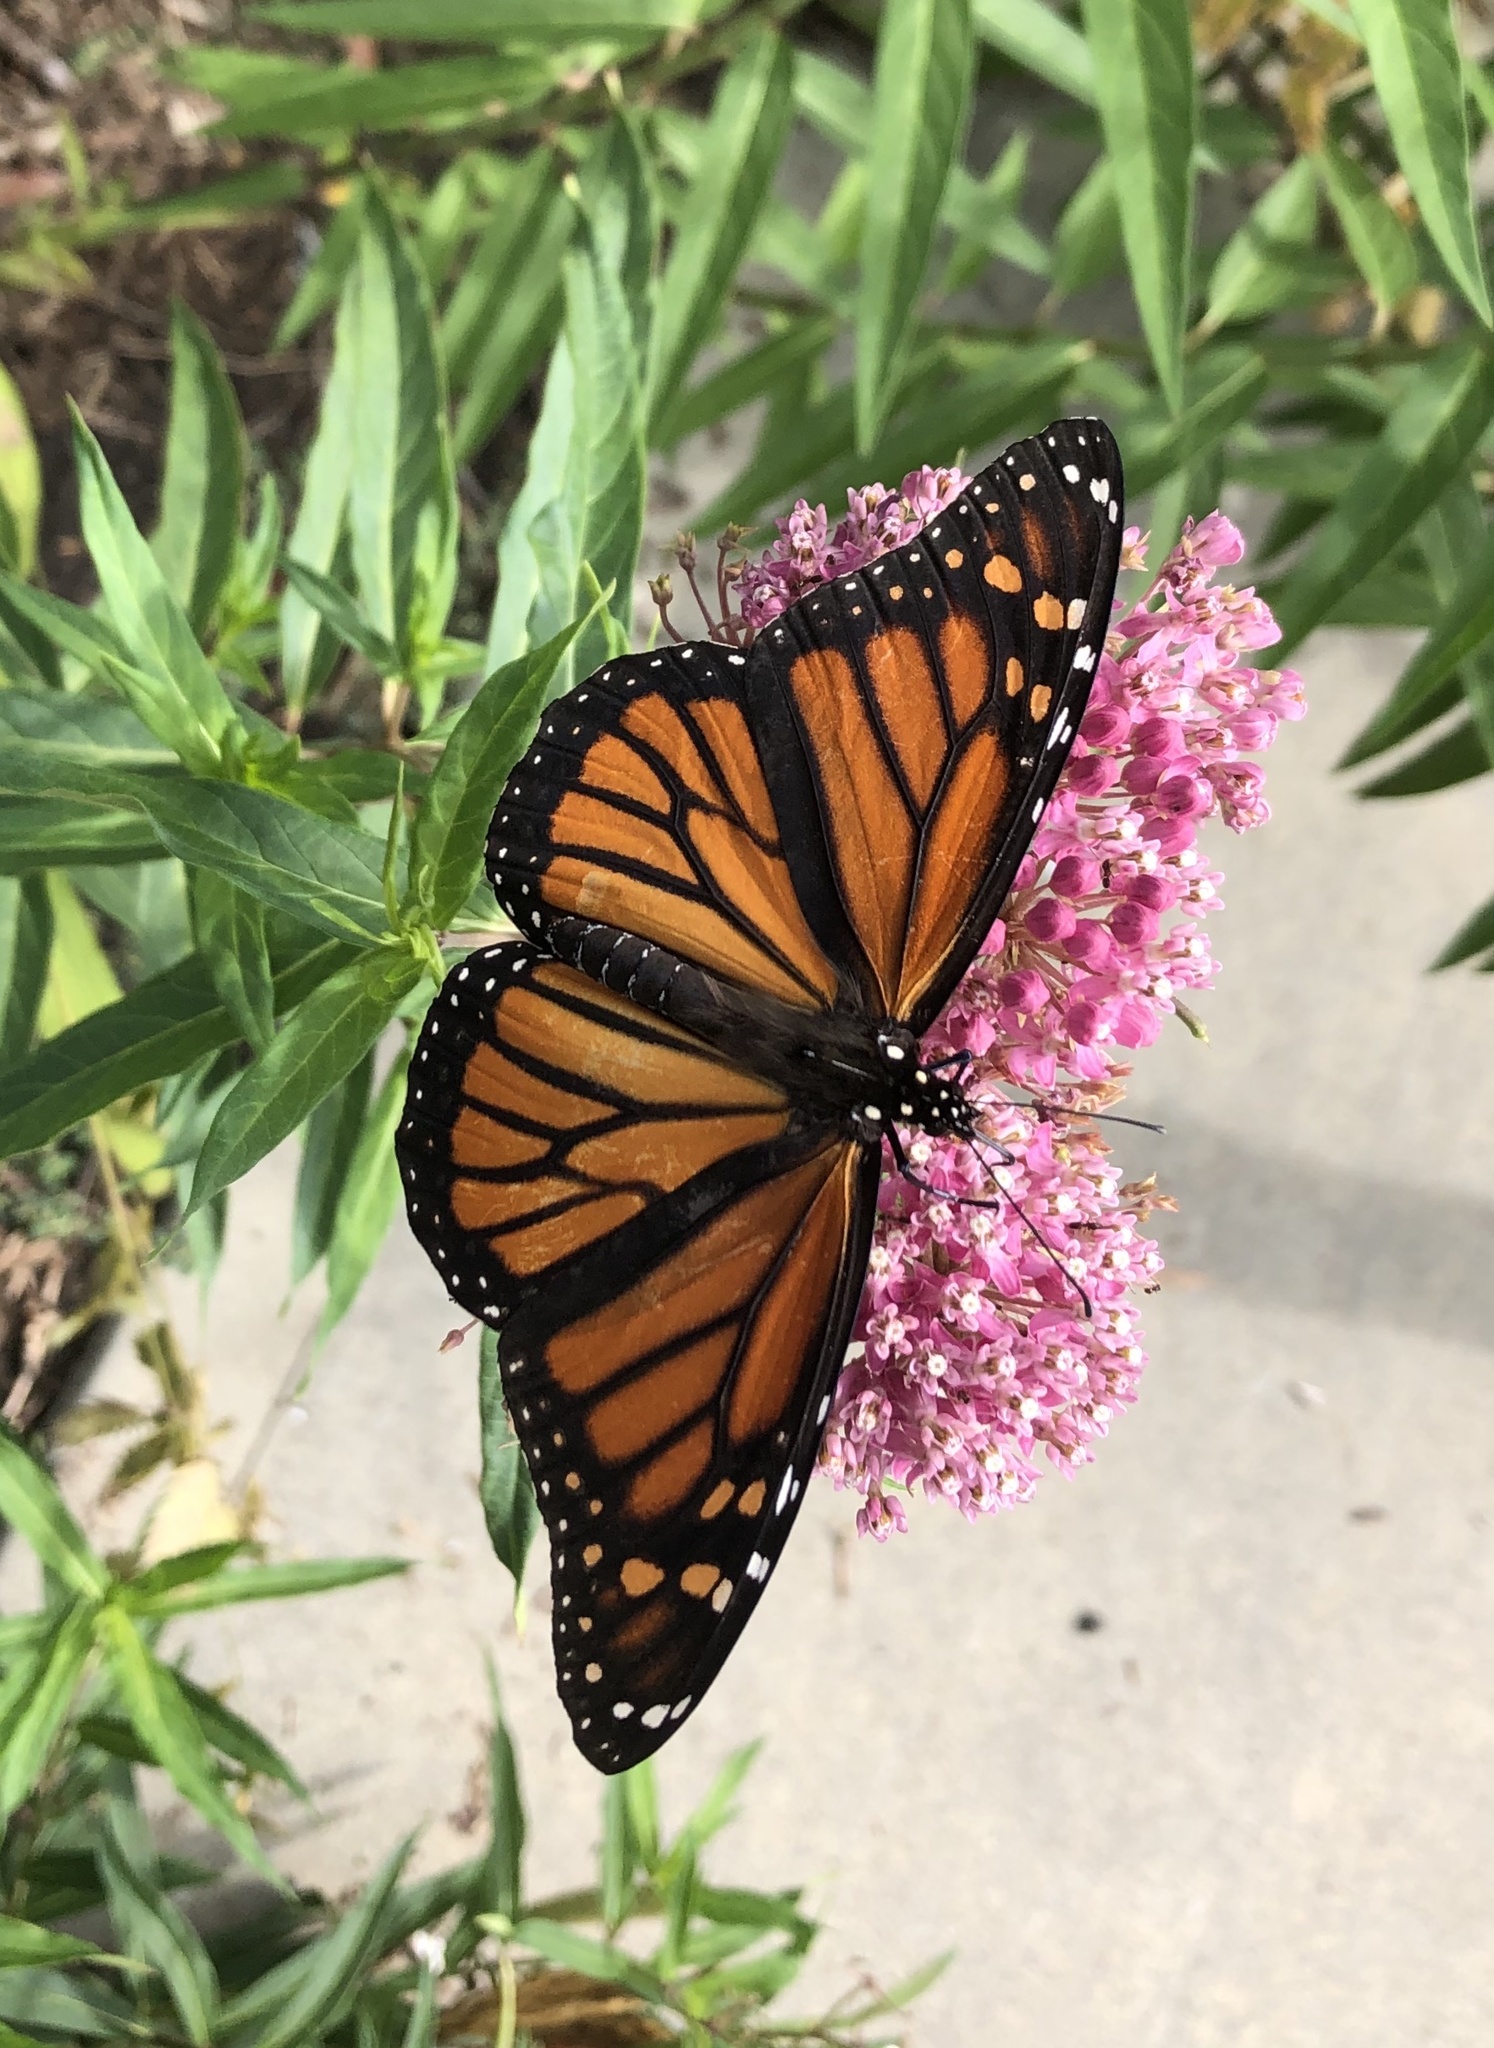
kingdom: Animalia
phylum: Arthropoda
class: Insecta
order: Lepidoptera
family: Nymphalidae
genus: Danaus
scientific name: Danaus plexippus
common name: Monarch
